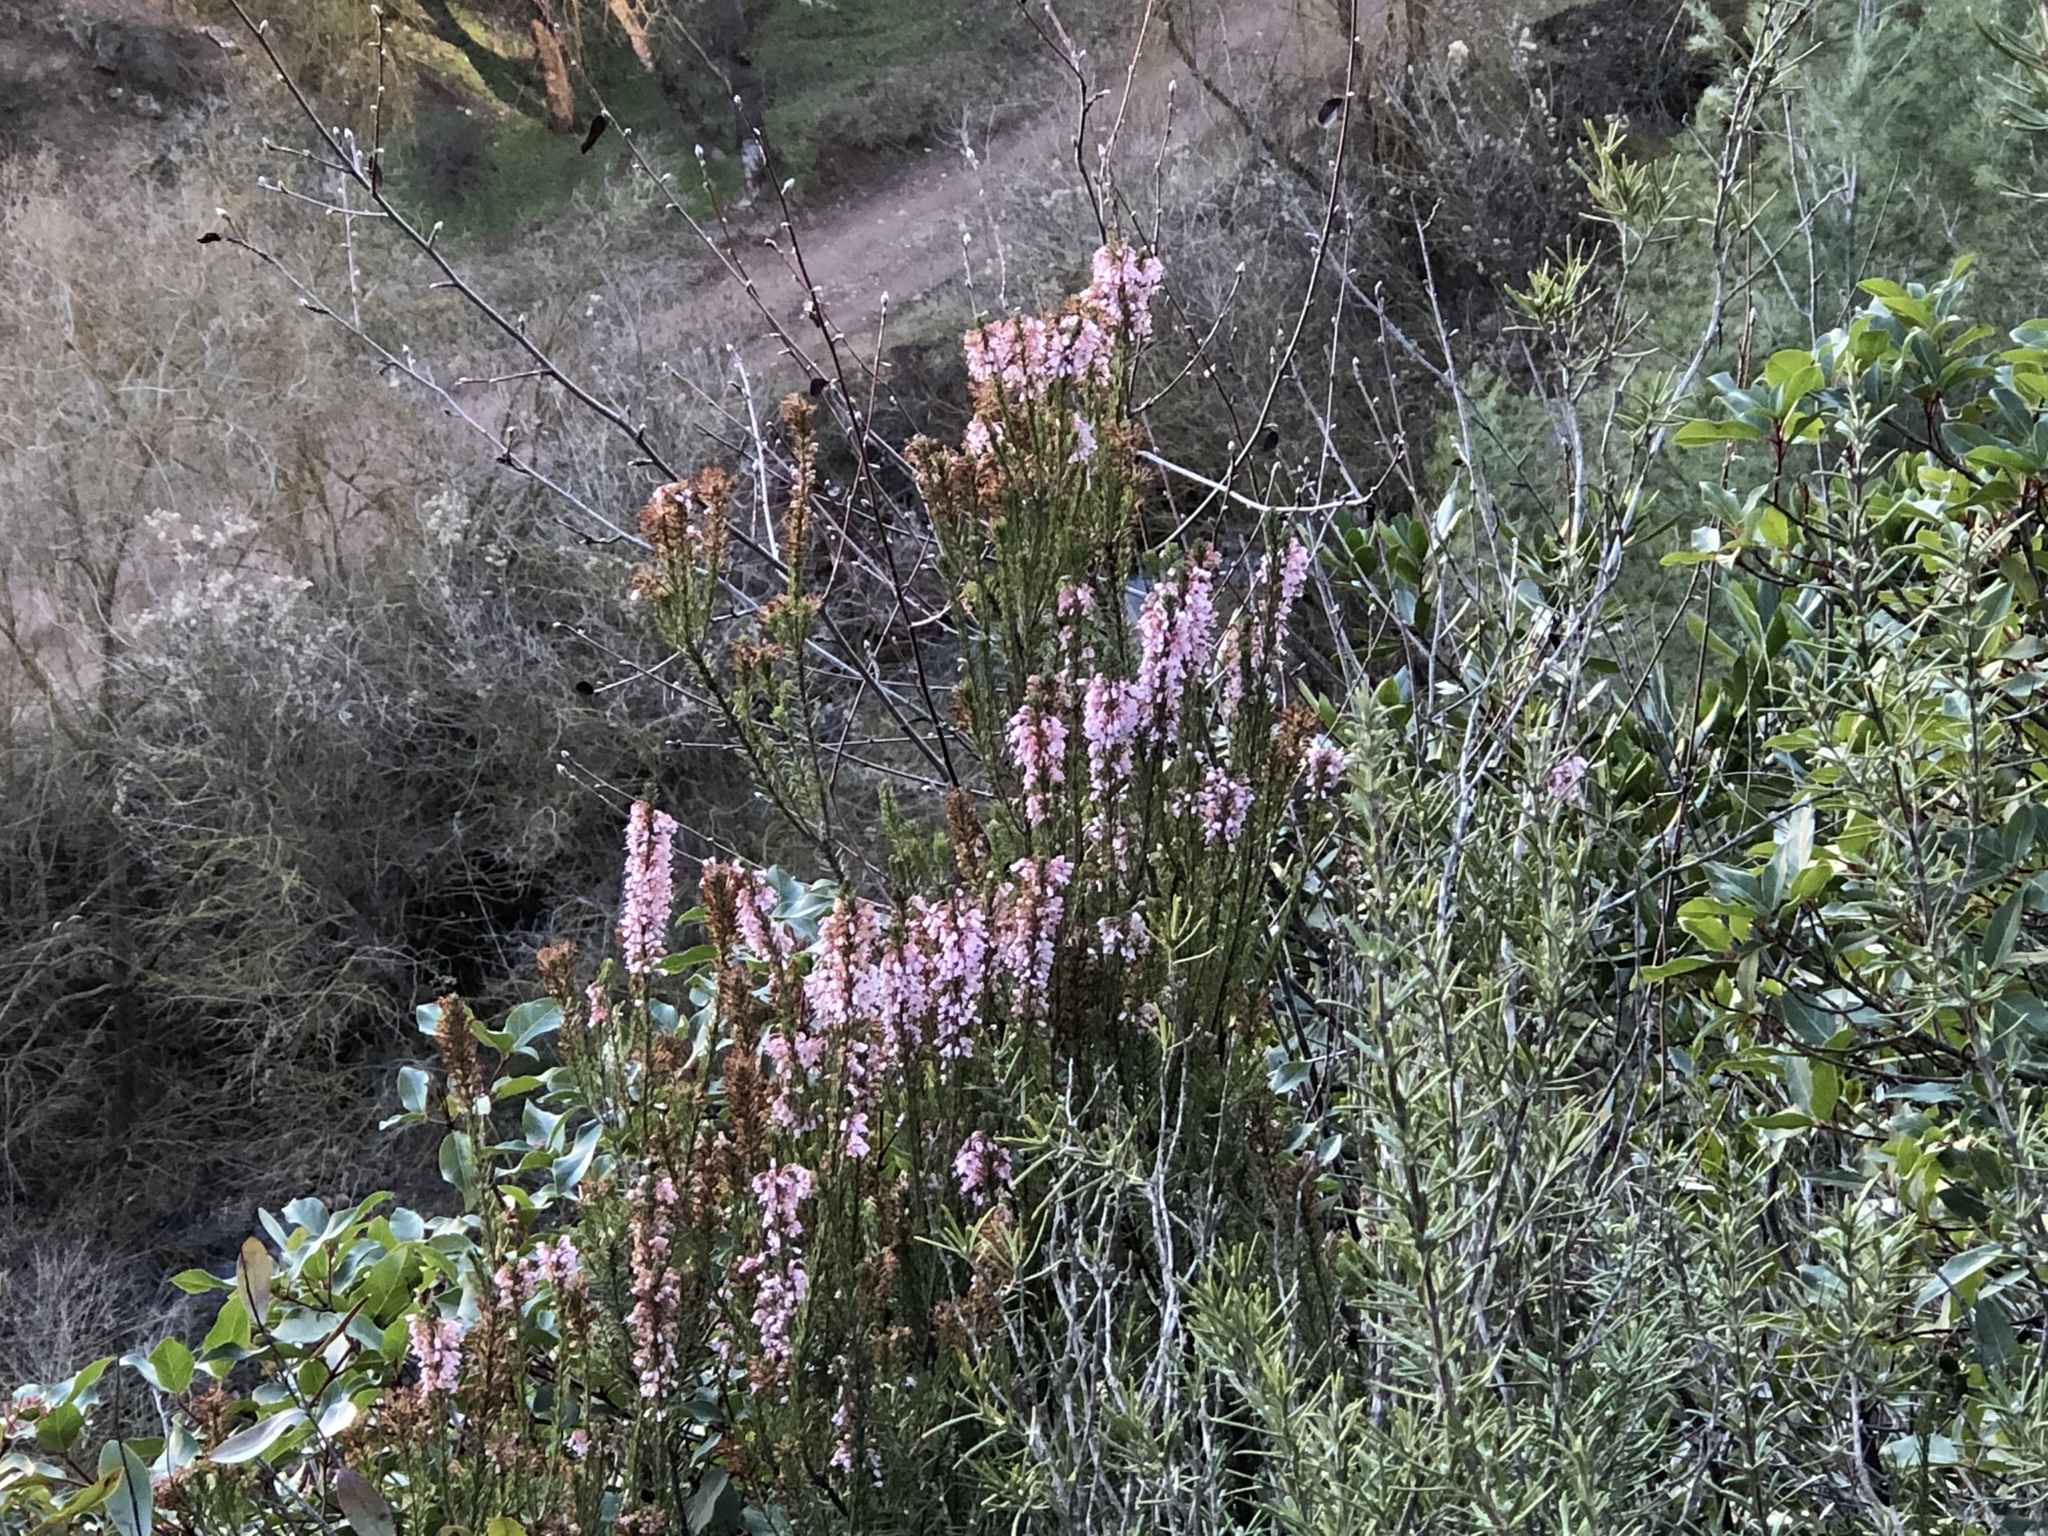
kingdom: Plantae
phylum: Tracheophyta
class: Magnoliopsida
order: Ericales
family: Ericaceae
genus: Erica
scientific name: Erica multiflora
